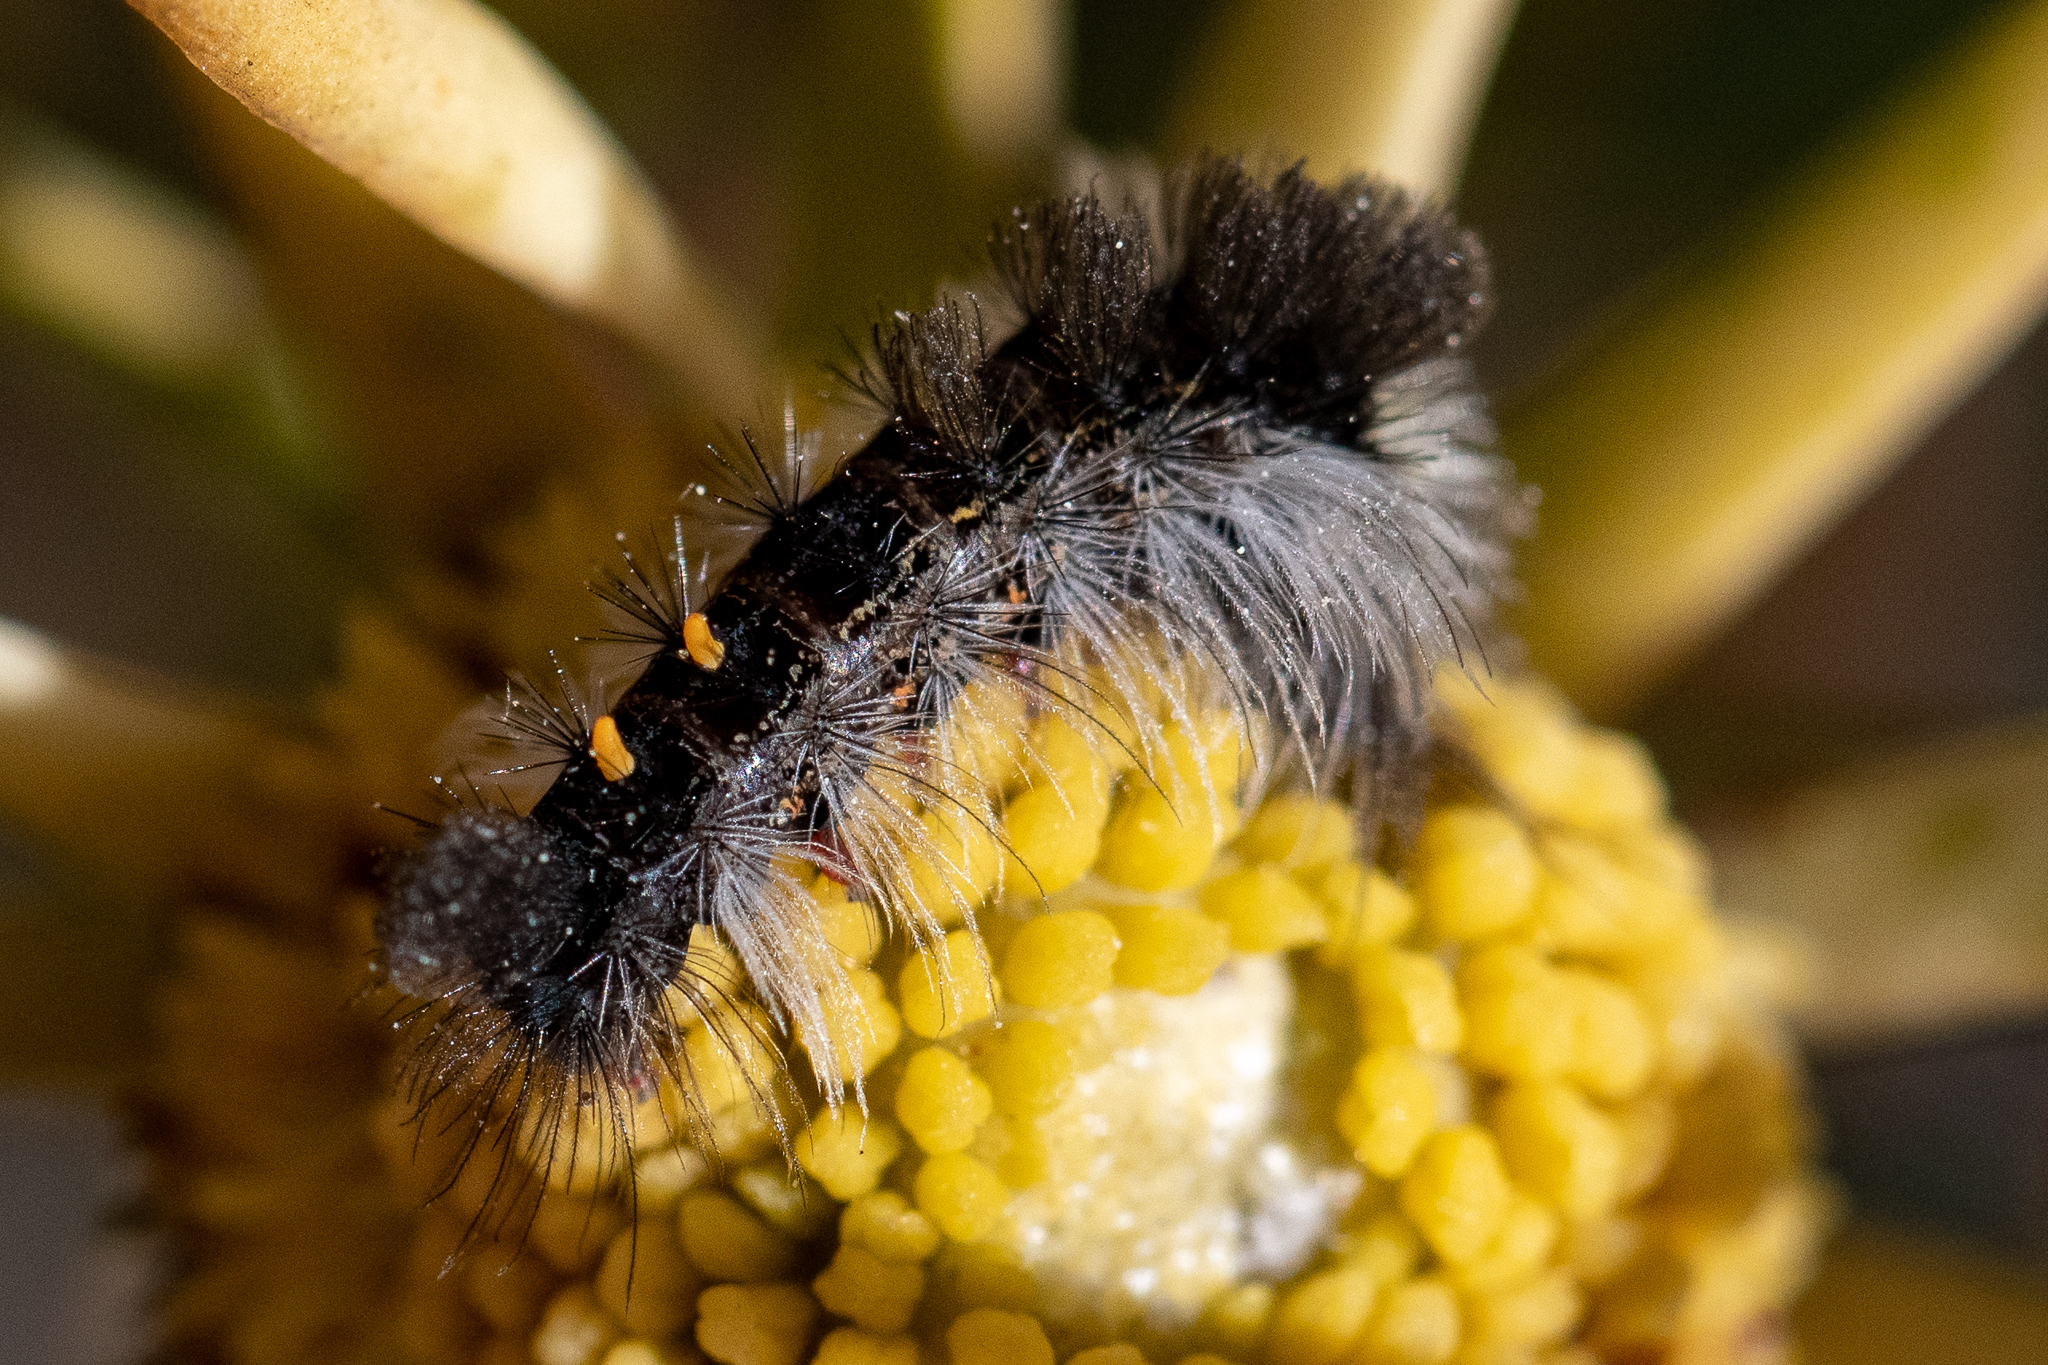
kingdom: Animalia
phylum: Arthropoda
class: Insecta
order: Lepidoptera
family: Erebidae
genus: Bracharoa
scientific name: Bracharoa dregei
